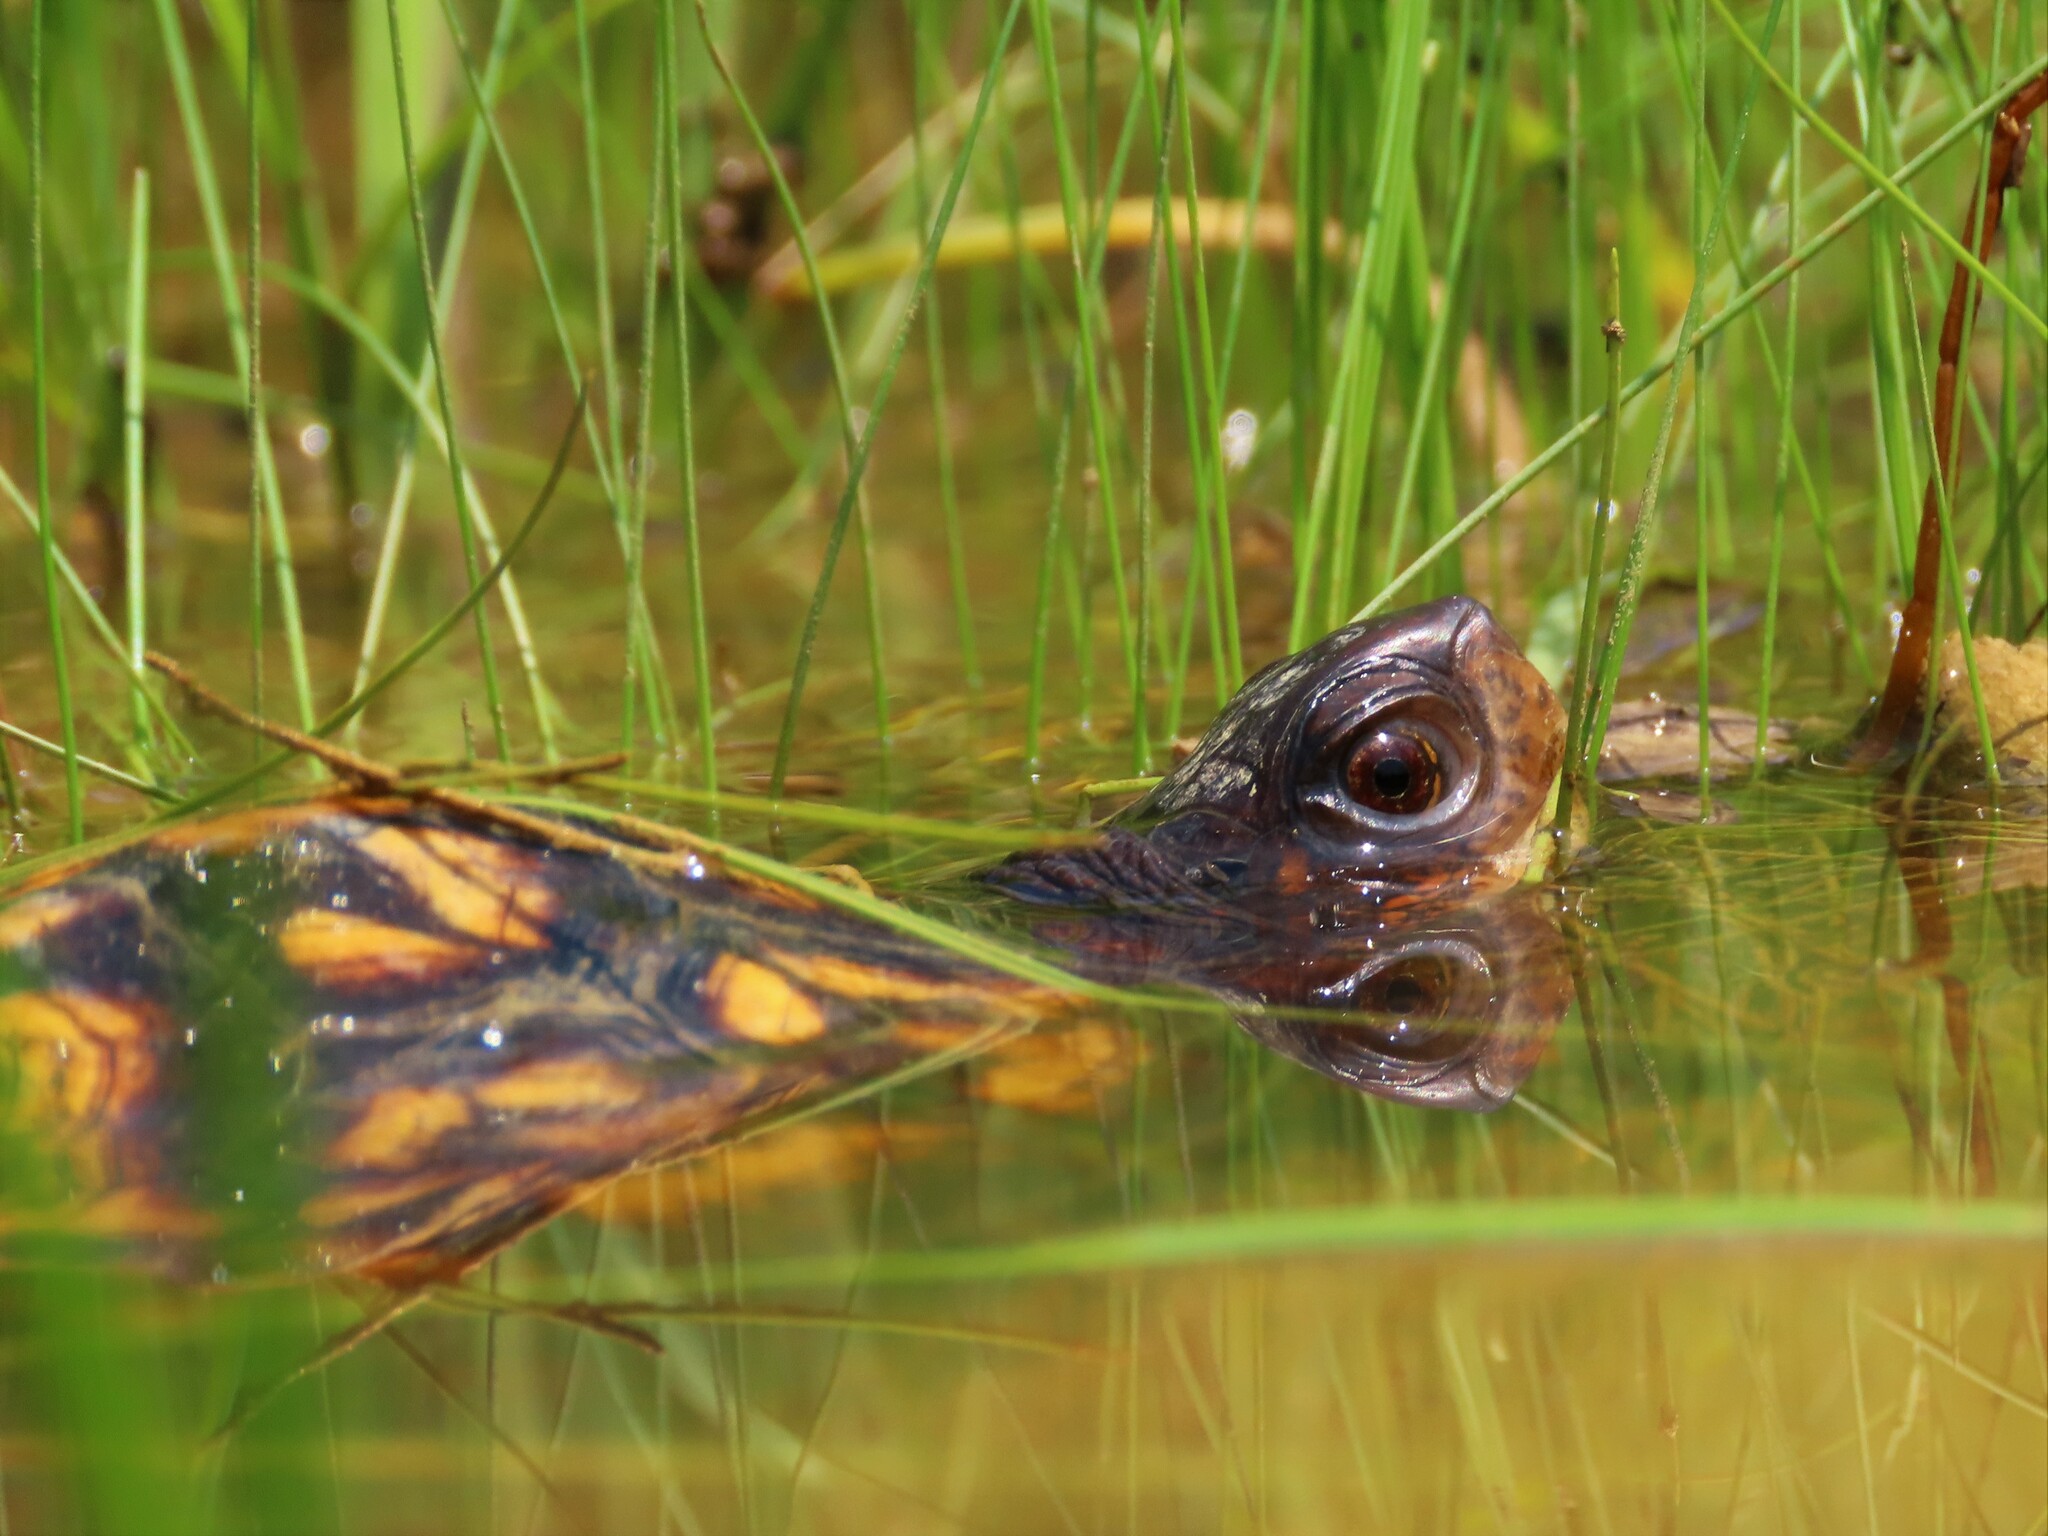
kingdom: Animalia
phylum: Chordata
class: Testudines
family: Emydidae
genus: Terrapene
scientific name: Terrapene carolina
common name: Common box turtle
